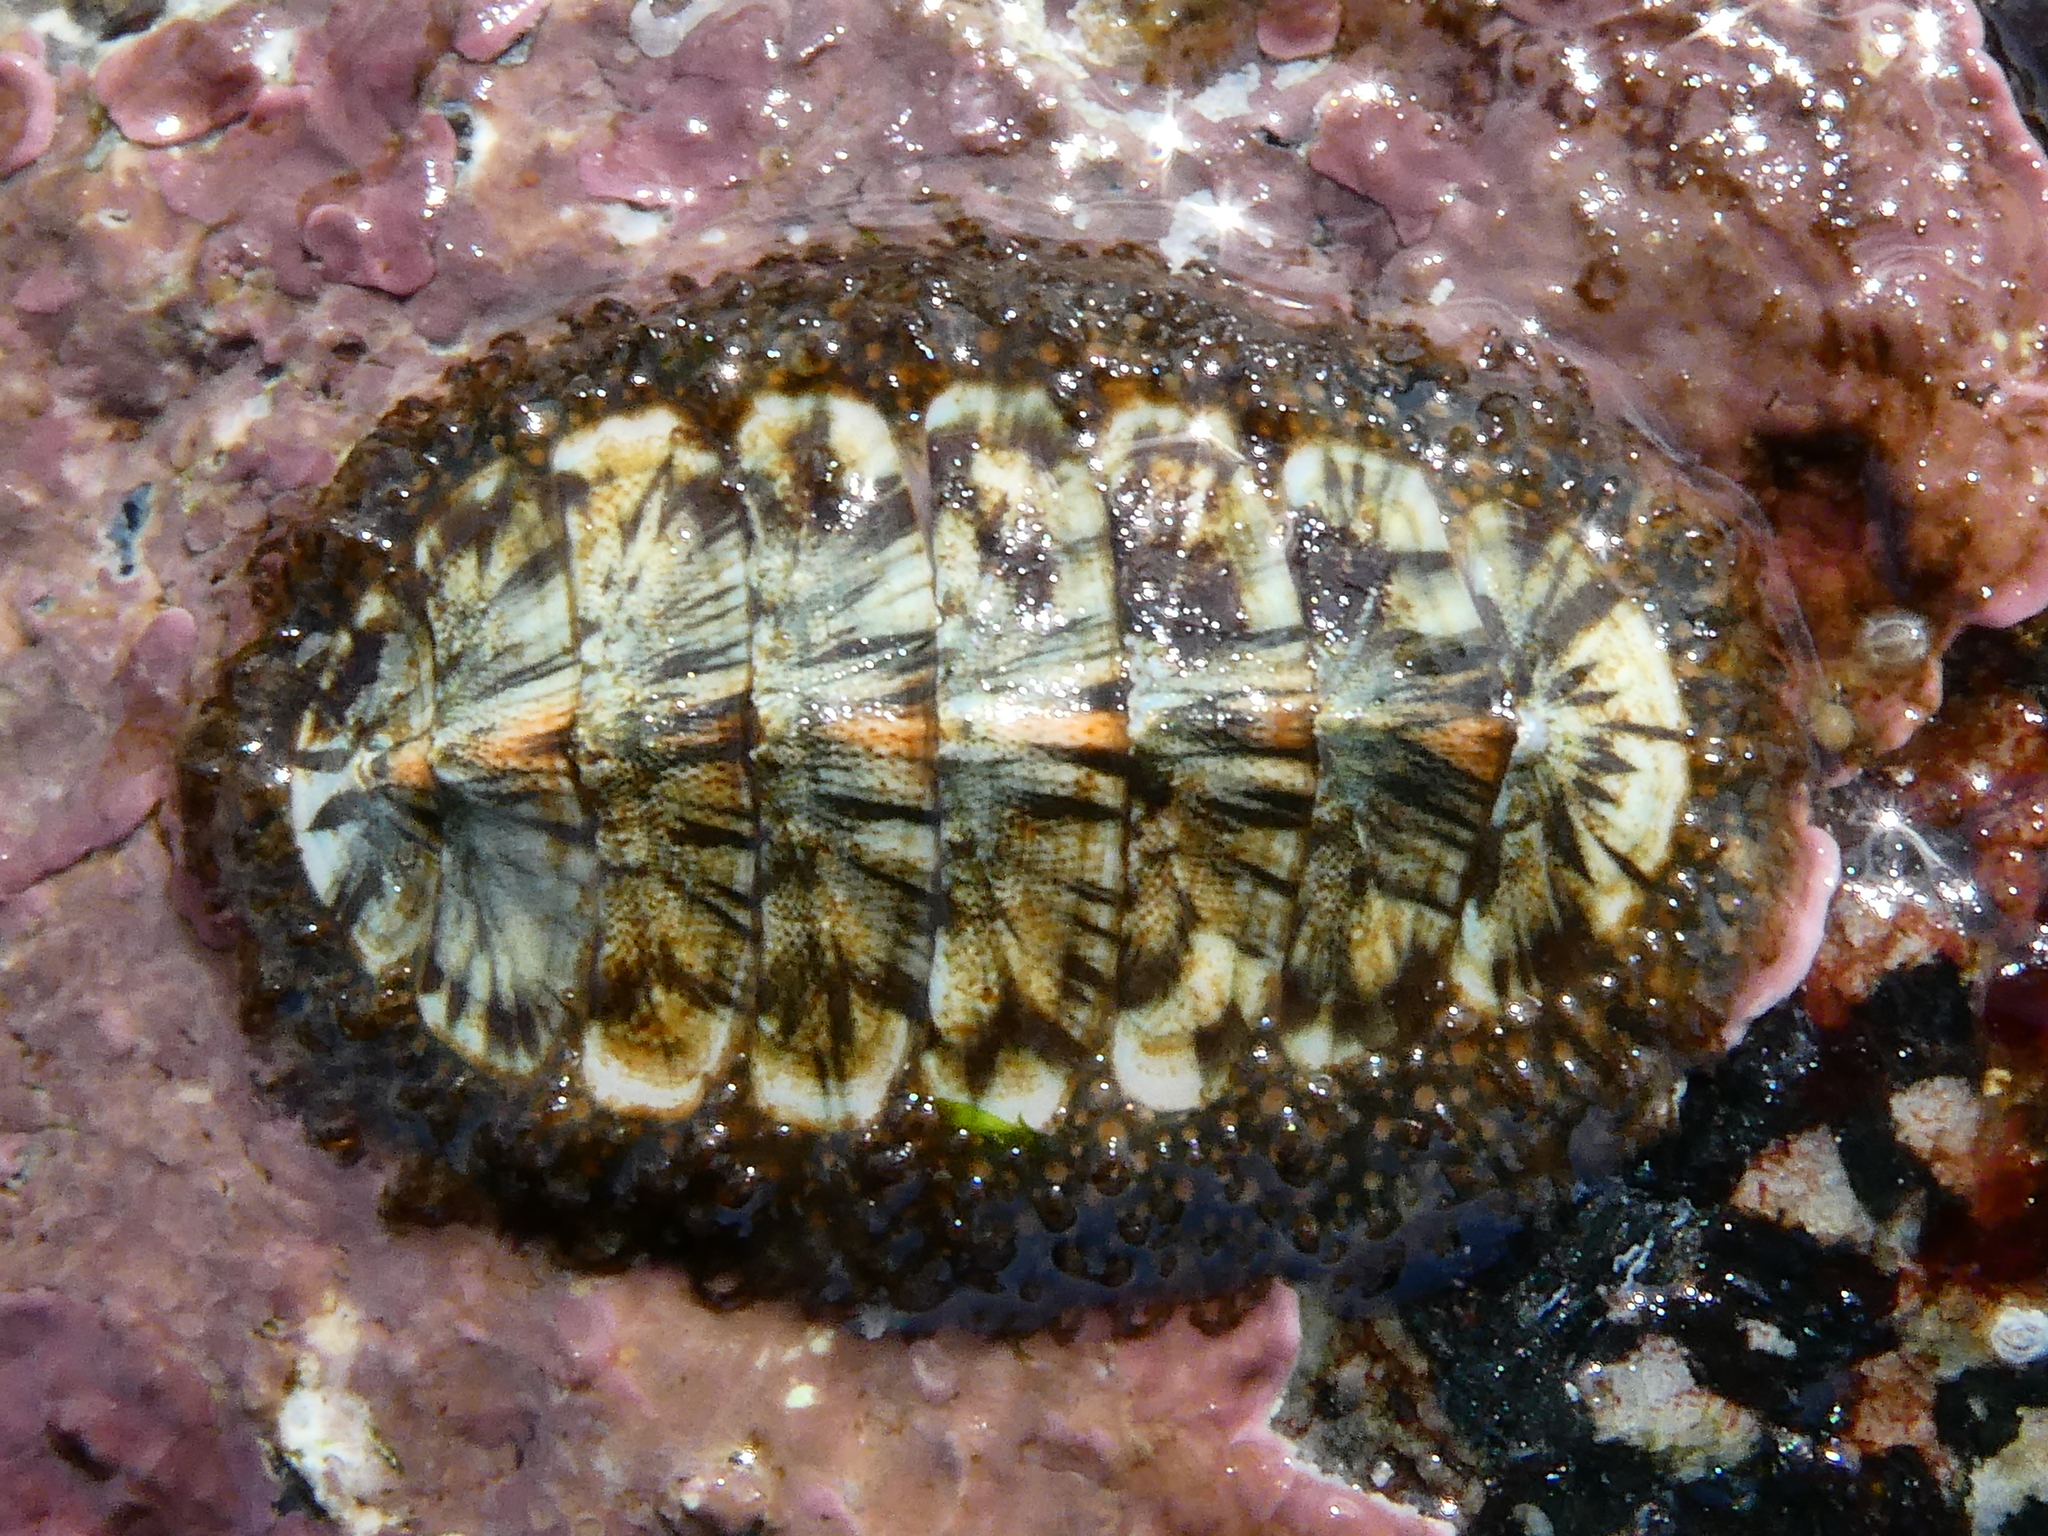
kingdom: Animalia
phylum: Mollusca
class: Polyplacophora
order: Chitonida
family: Mopaliidae
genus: Mopalia
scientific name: Mopalia lignosa
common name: Woody chiton
